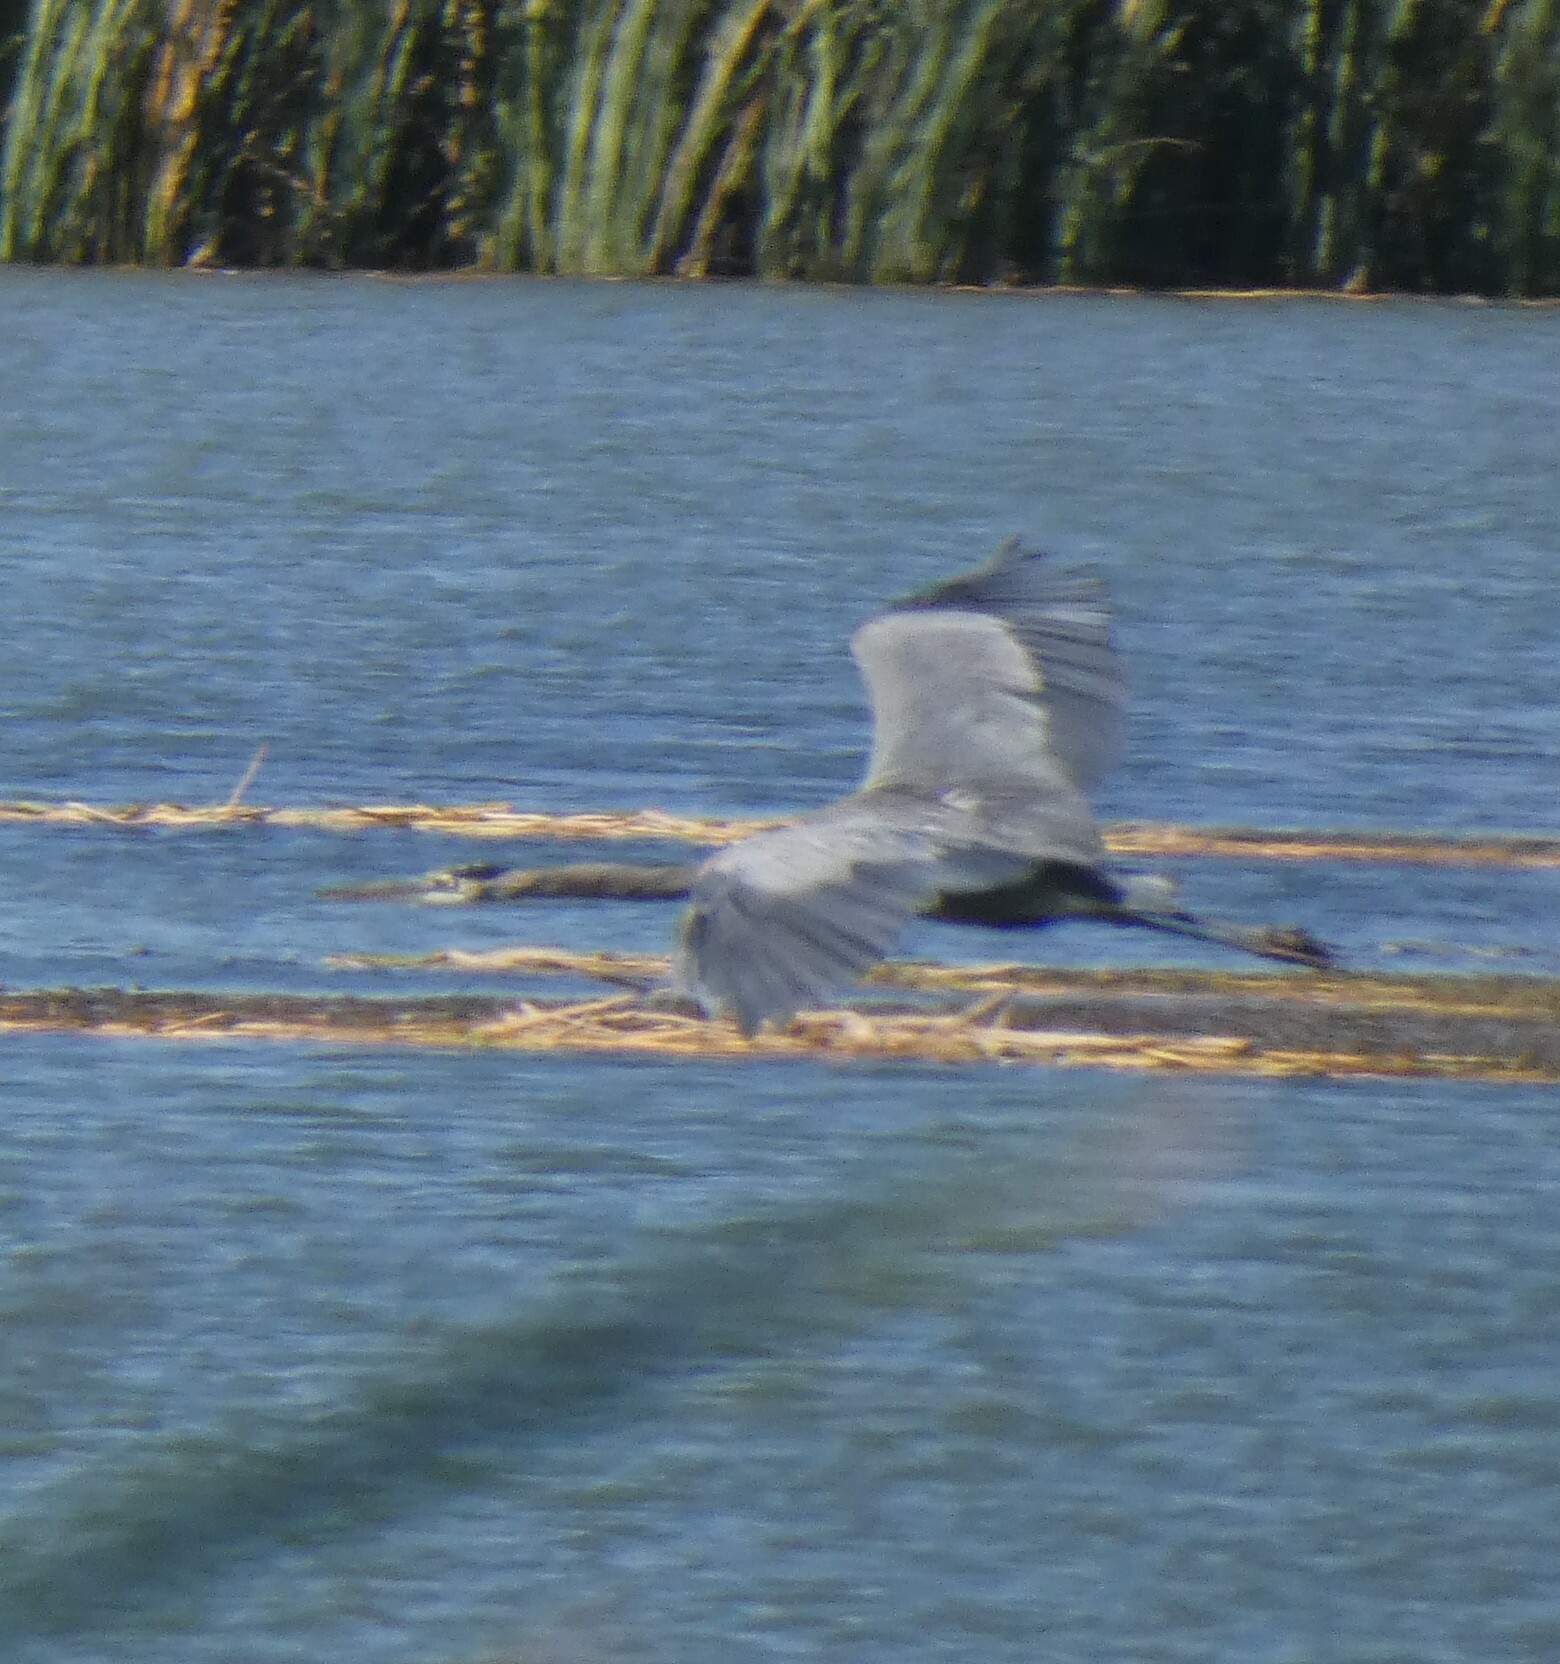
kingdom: Animalia
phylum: Chordata
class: Aves
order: Pelecaniformes
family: Ardeidae
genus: Ardea
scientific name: Ardea herodias
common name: Great blue heron
